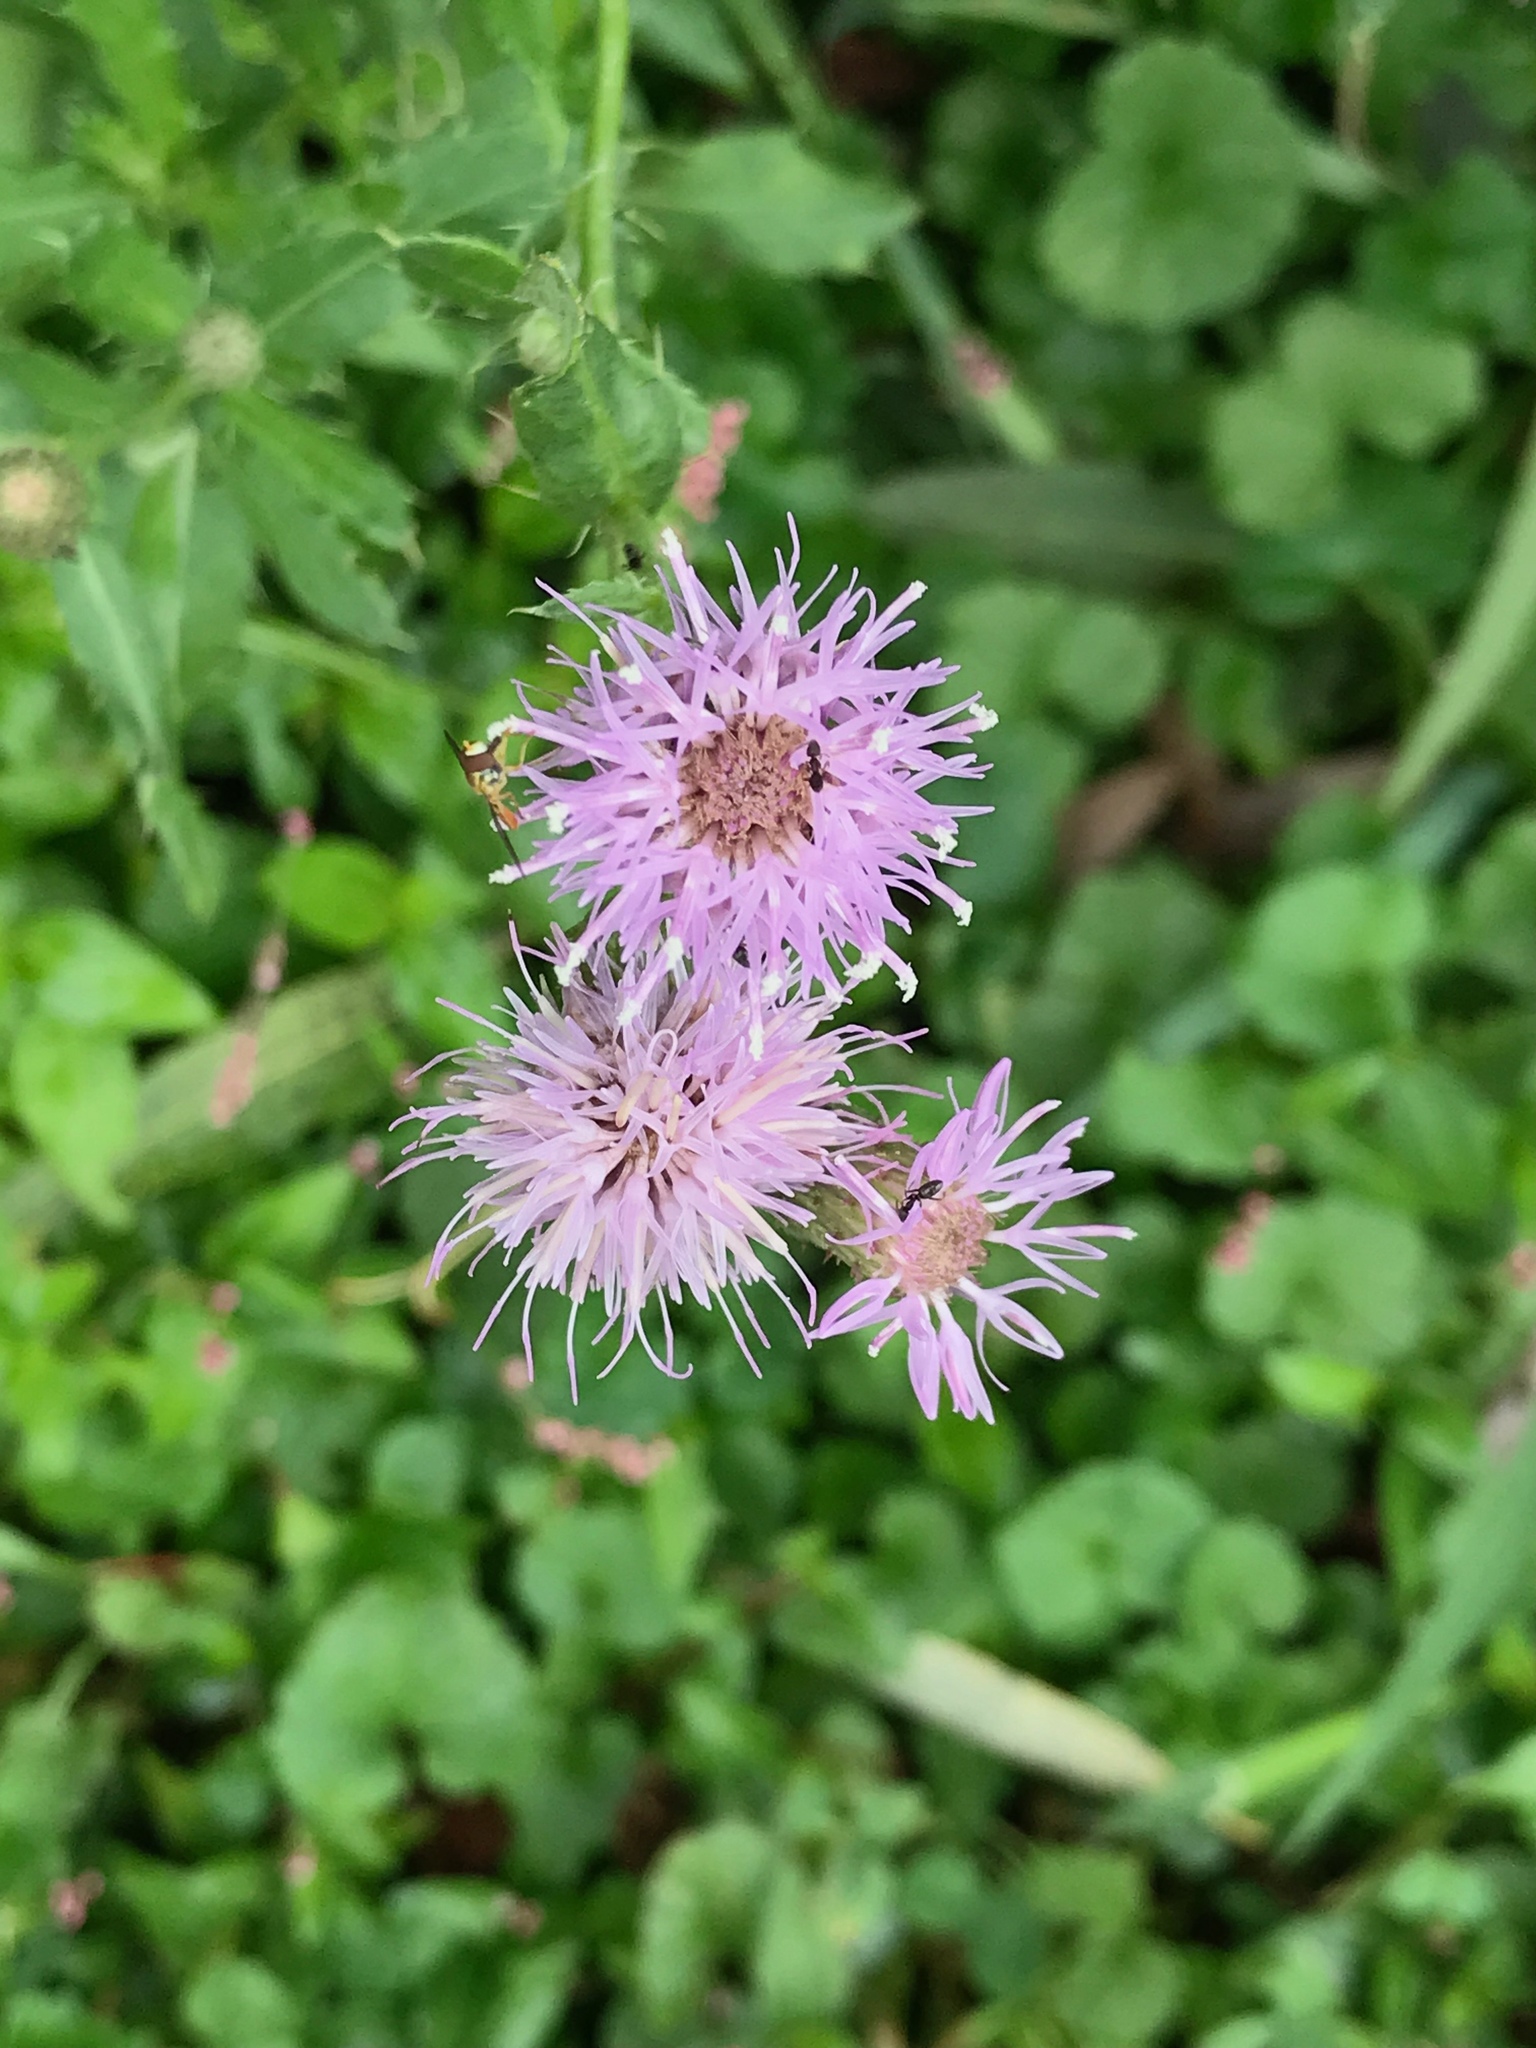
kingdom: Plantae
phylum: Tracheophyta
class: Magnoliopsida
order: Asterales
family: Asteraceae
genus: Cirsium
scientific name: Cirsium arvense
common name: Creeping thistle
